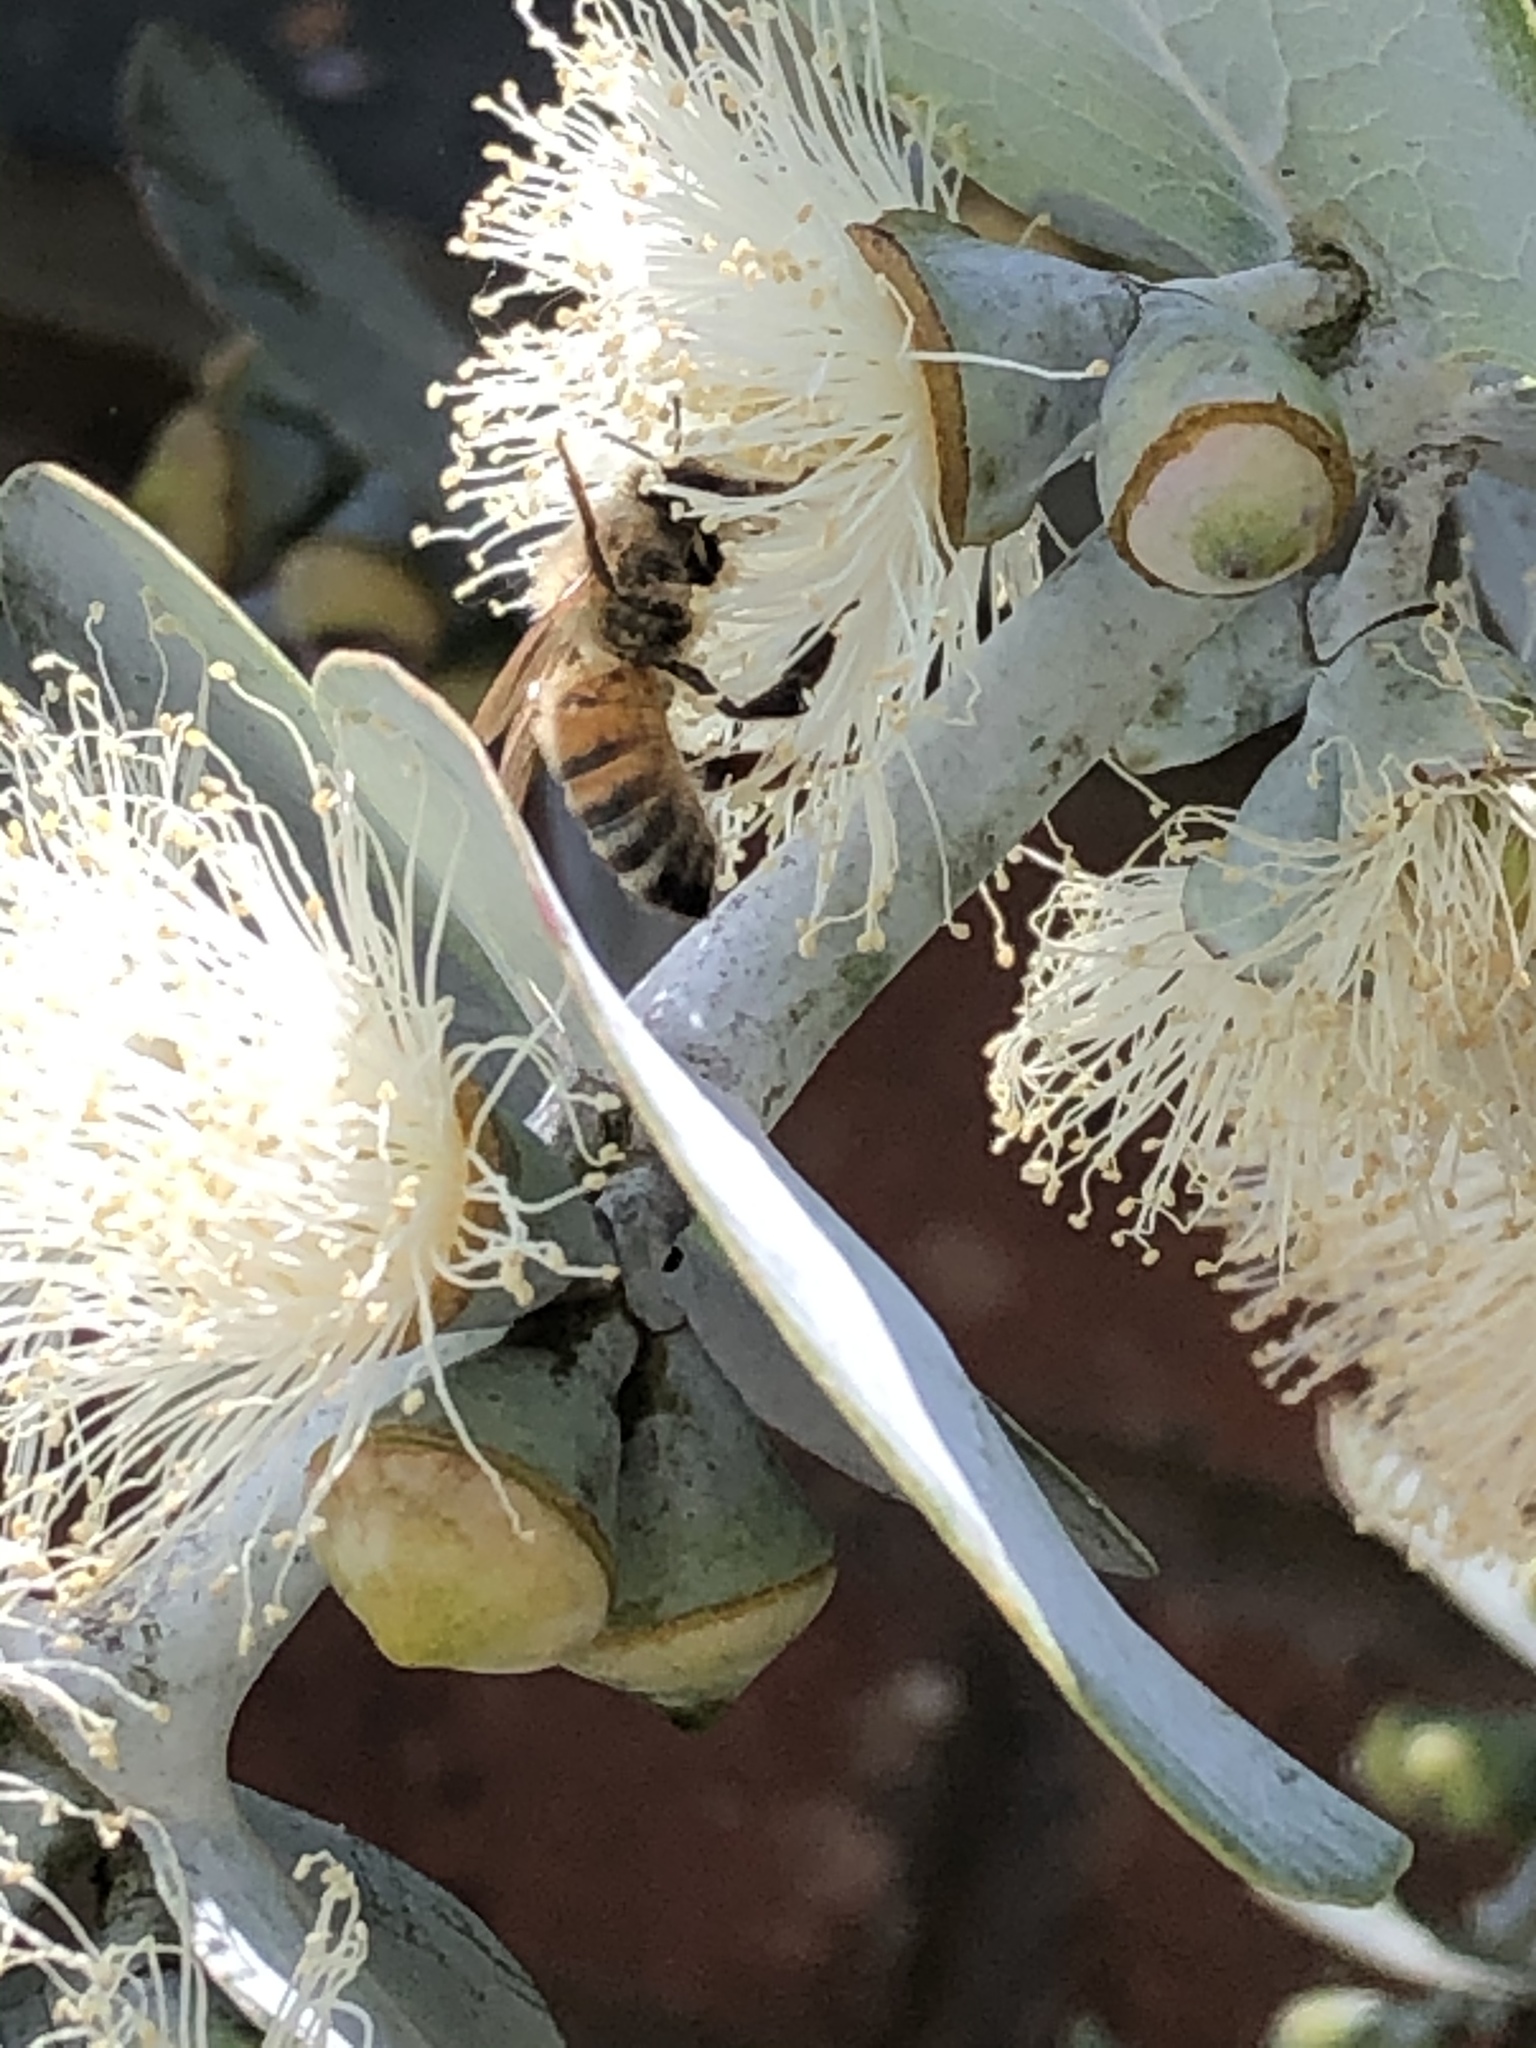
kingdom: Animalia
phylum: Arthropoda
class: Insecta
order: Hymenoptera
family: Apidae
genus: Apis
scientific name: Apis mellifera
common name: Honey bee
